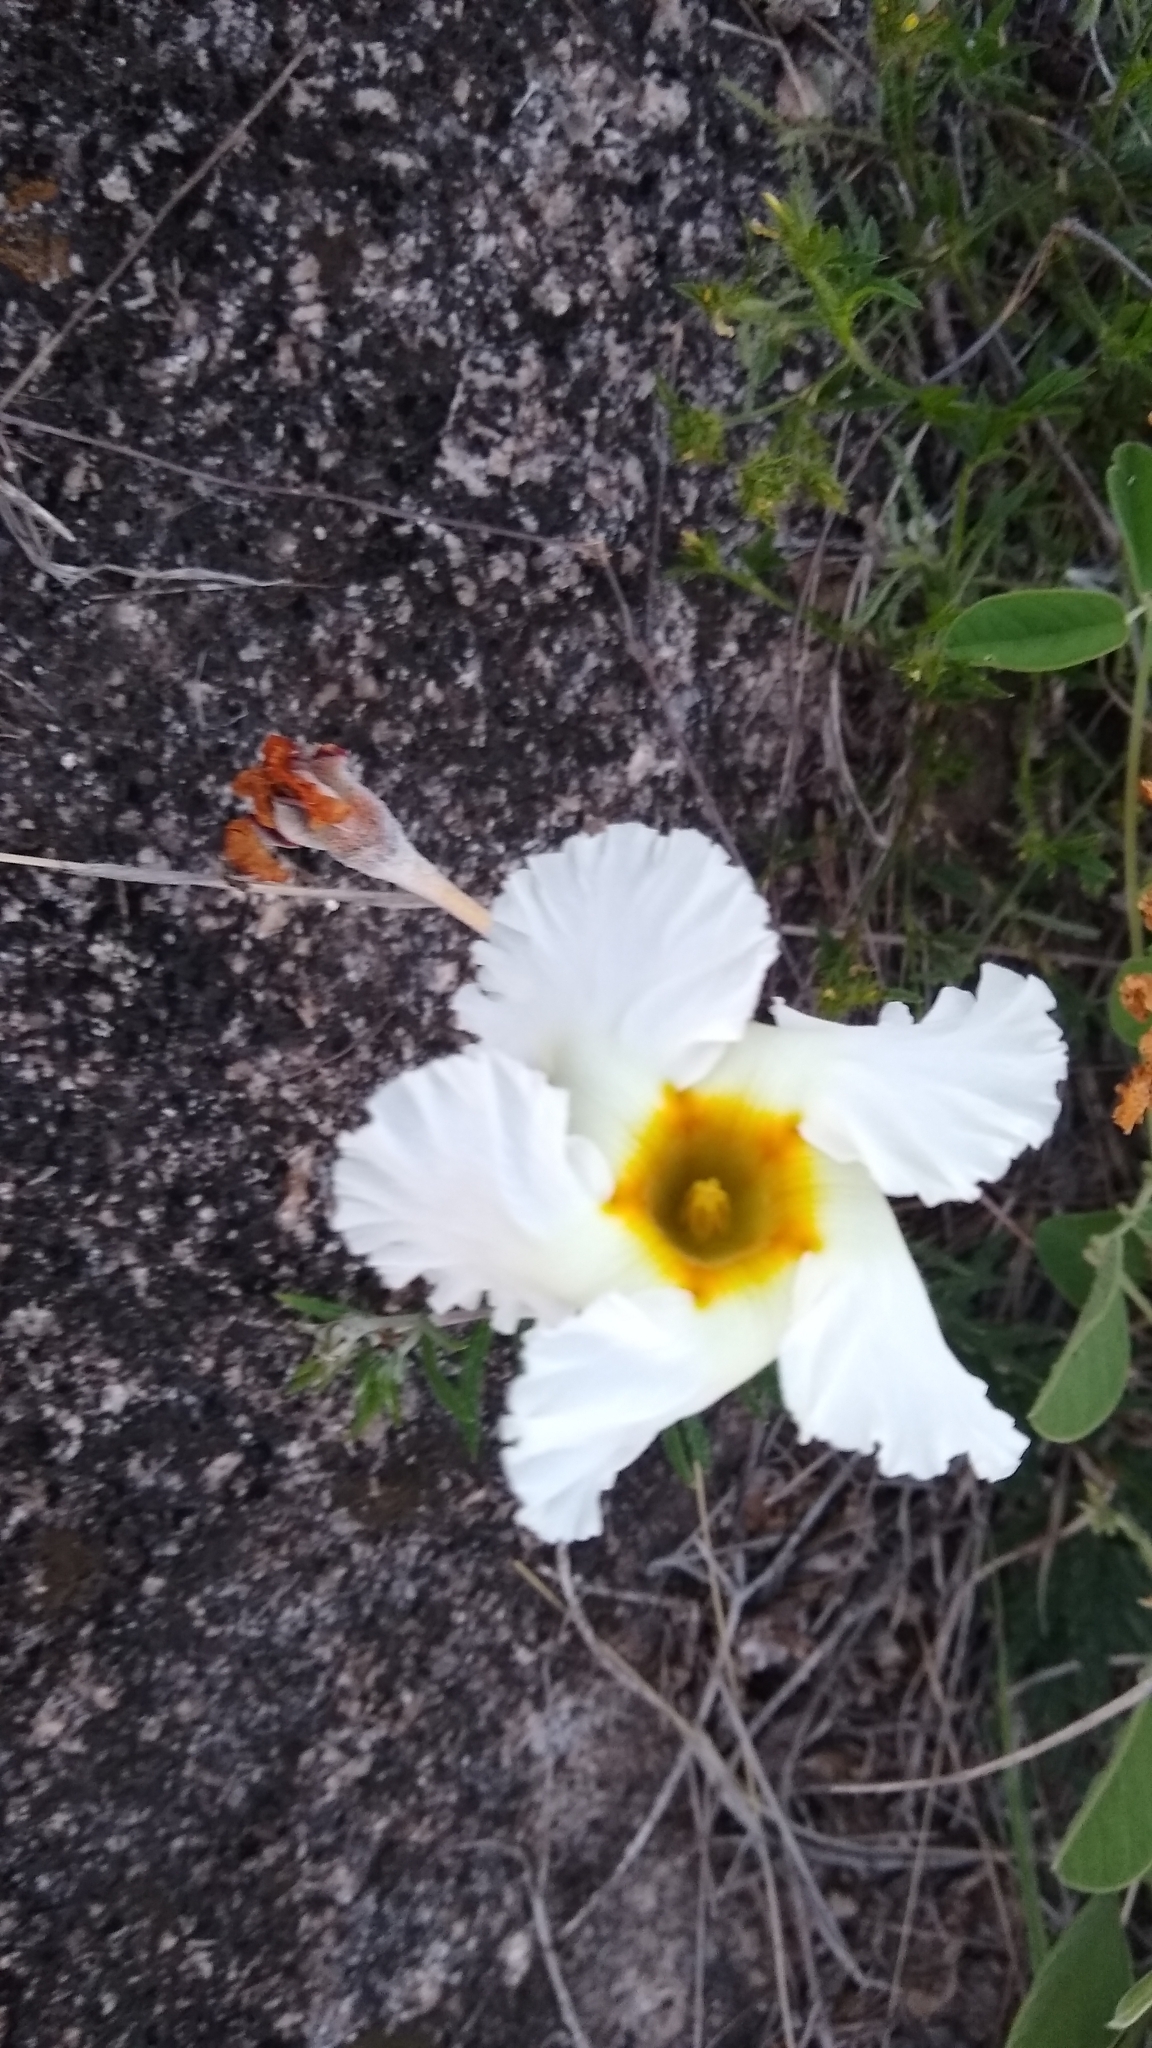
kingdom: Plantae
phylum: Tracheophyta
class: Magnoliopsida
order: Gentianales
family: Apocynaceae
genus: Mandevilla
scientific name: Mandevilla petraea
